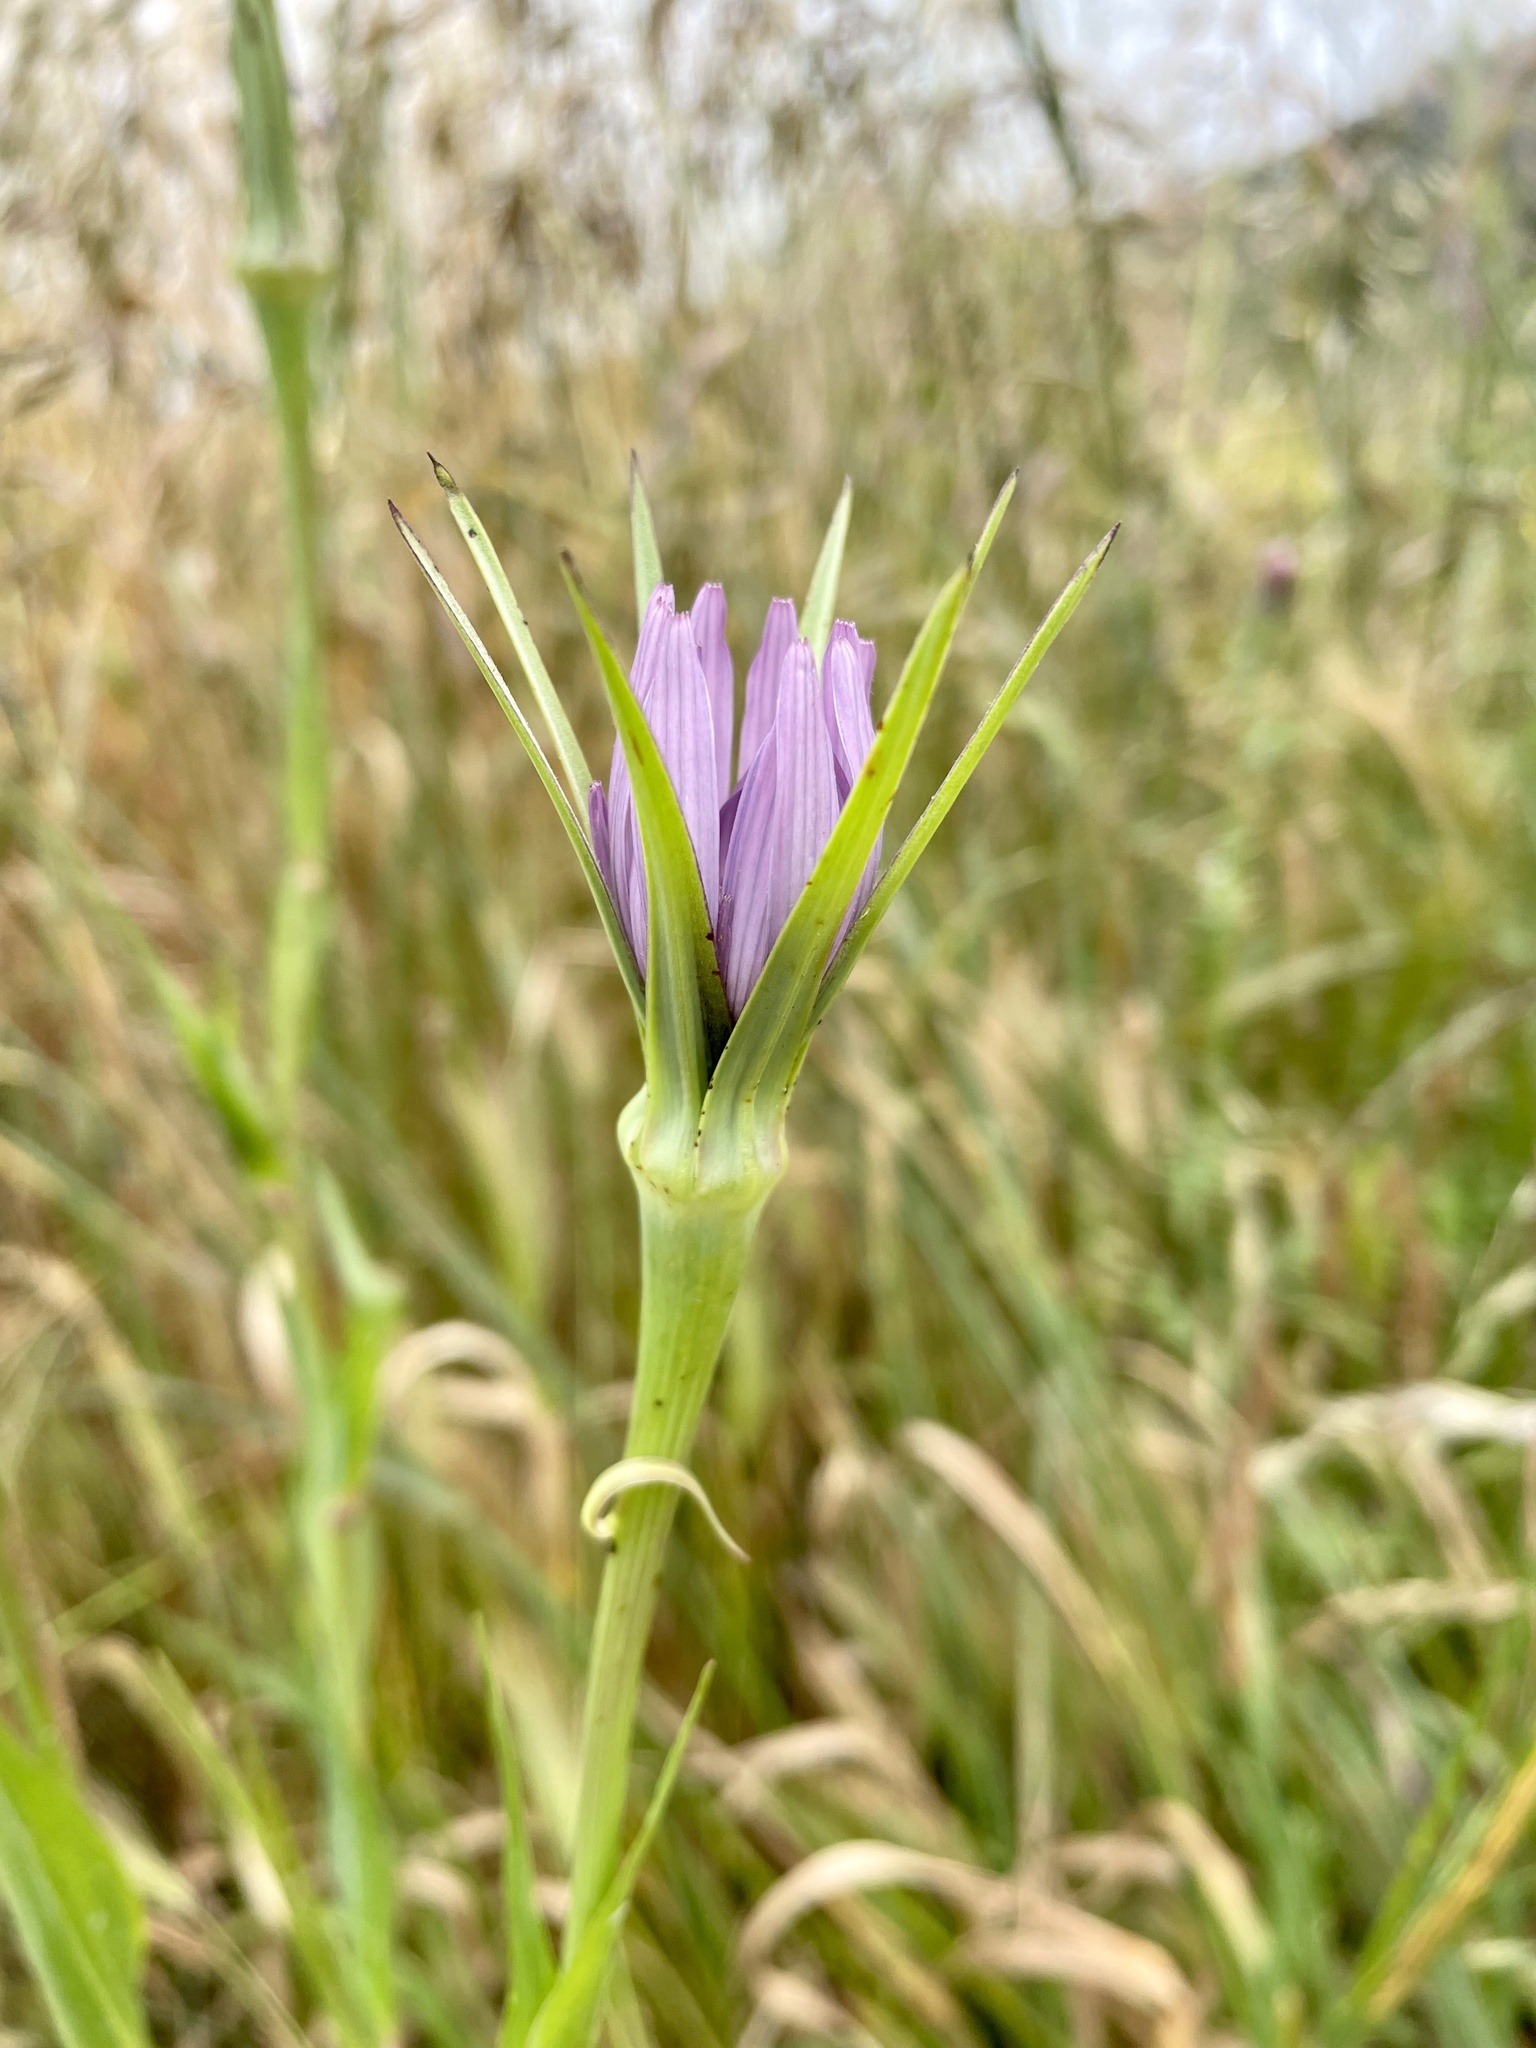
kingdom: Plantae
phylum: Tracheophyta
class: Magnoliopsida
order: Asterales
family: Asteraceae
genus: Tragopogon
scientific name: Tragopogon porrifolius
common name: Salsify
